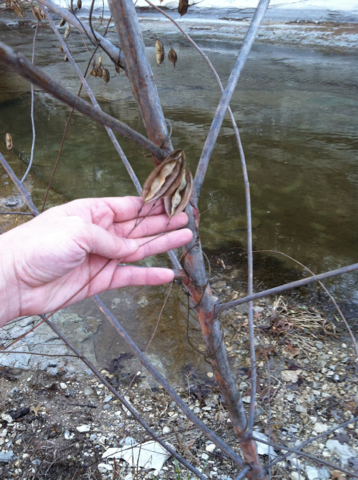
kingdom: Plantae
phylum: Tracheophyta
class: Magnoliopsida
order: Fabales
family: Fabaceae
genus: Sesbania
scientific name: Sesbania vesicaria
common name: Bagpod
